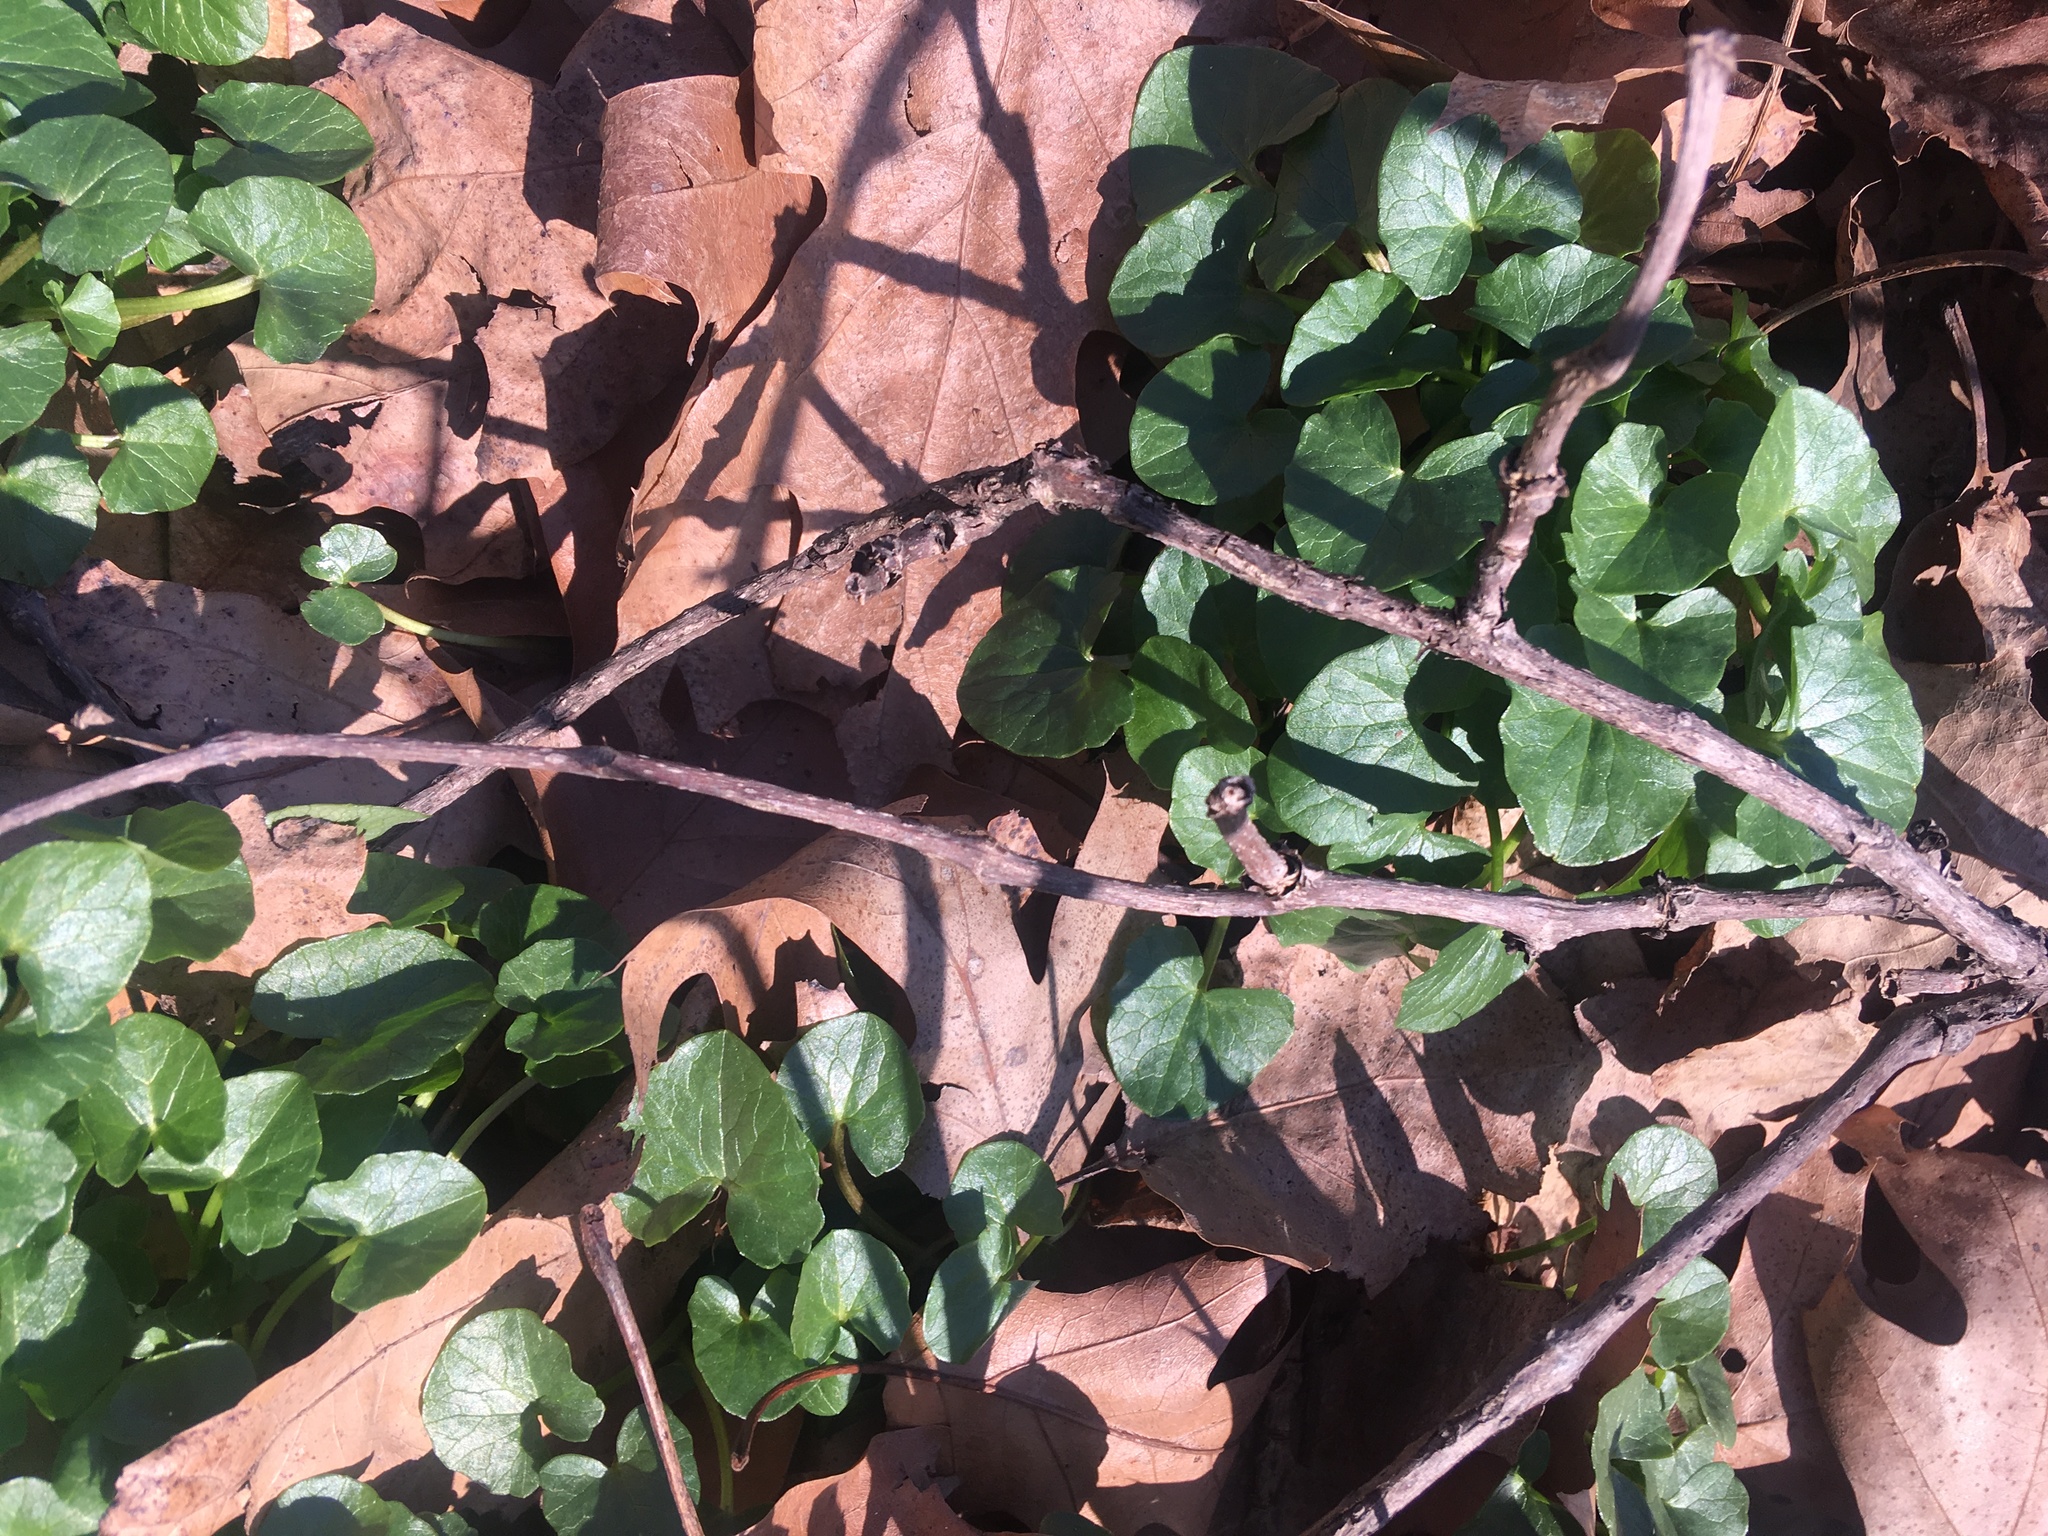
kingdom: Plantae
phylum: Tracheophyta
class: Magnoliopsida
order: Ranunculales
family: Ranunculaceae
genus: Ficaria
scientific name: Ficaria verna
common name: Lesser celandine
